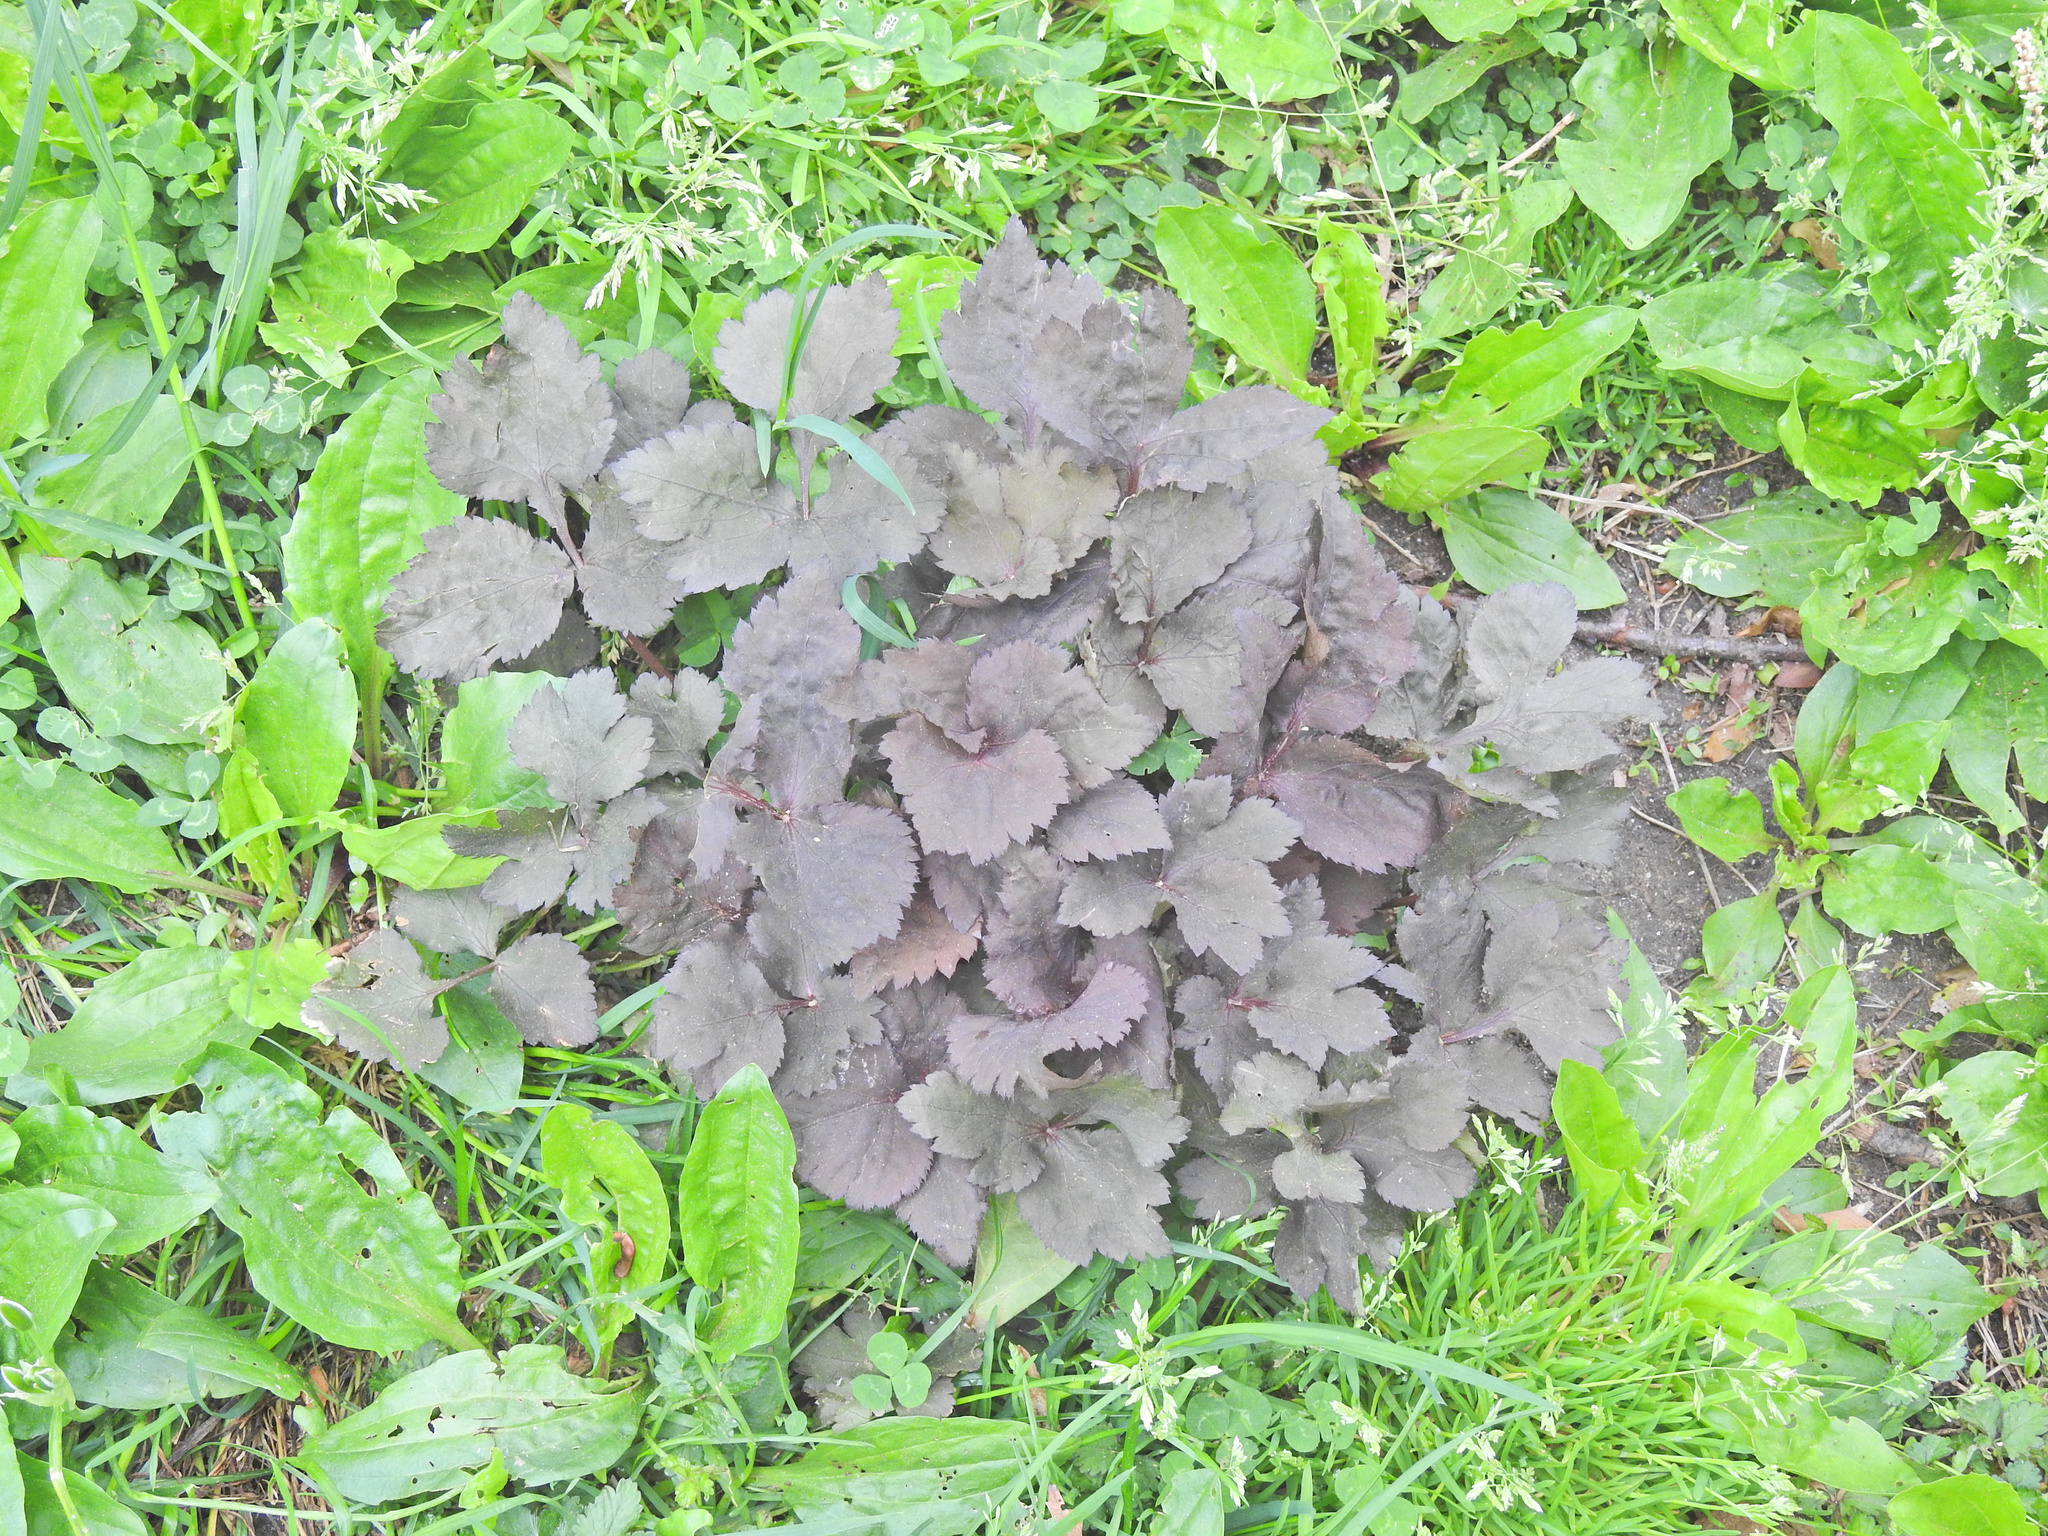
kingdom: Plantae
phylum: Tracheophyta
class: Magnoliopsida
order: Lamiales
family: Lamiaceae
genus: Perilla
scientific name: Perilla frutescens
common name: Perilla
